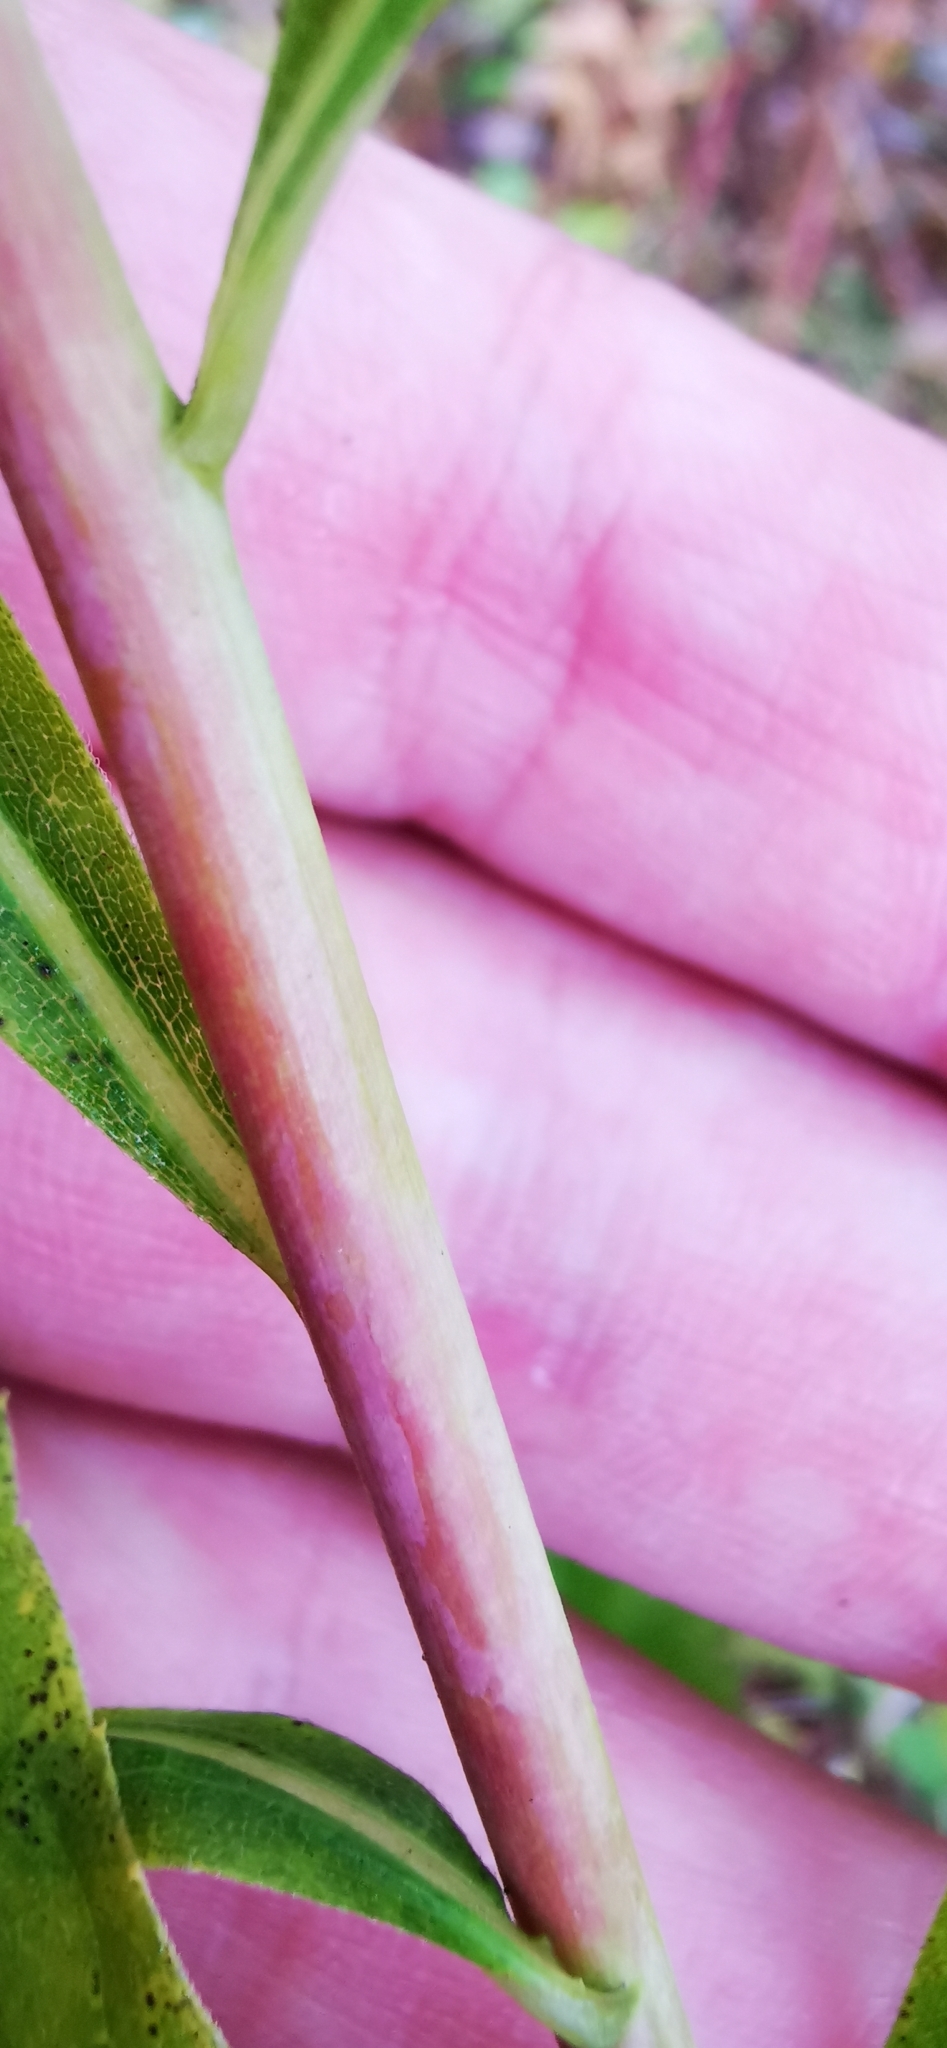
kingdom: Plantae
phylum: Tracheophyta
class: Magnoliopsida
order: Asterales
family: Asteraceae
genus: Solidago
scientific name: Solidago gigantea
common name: Giant goldenrod
